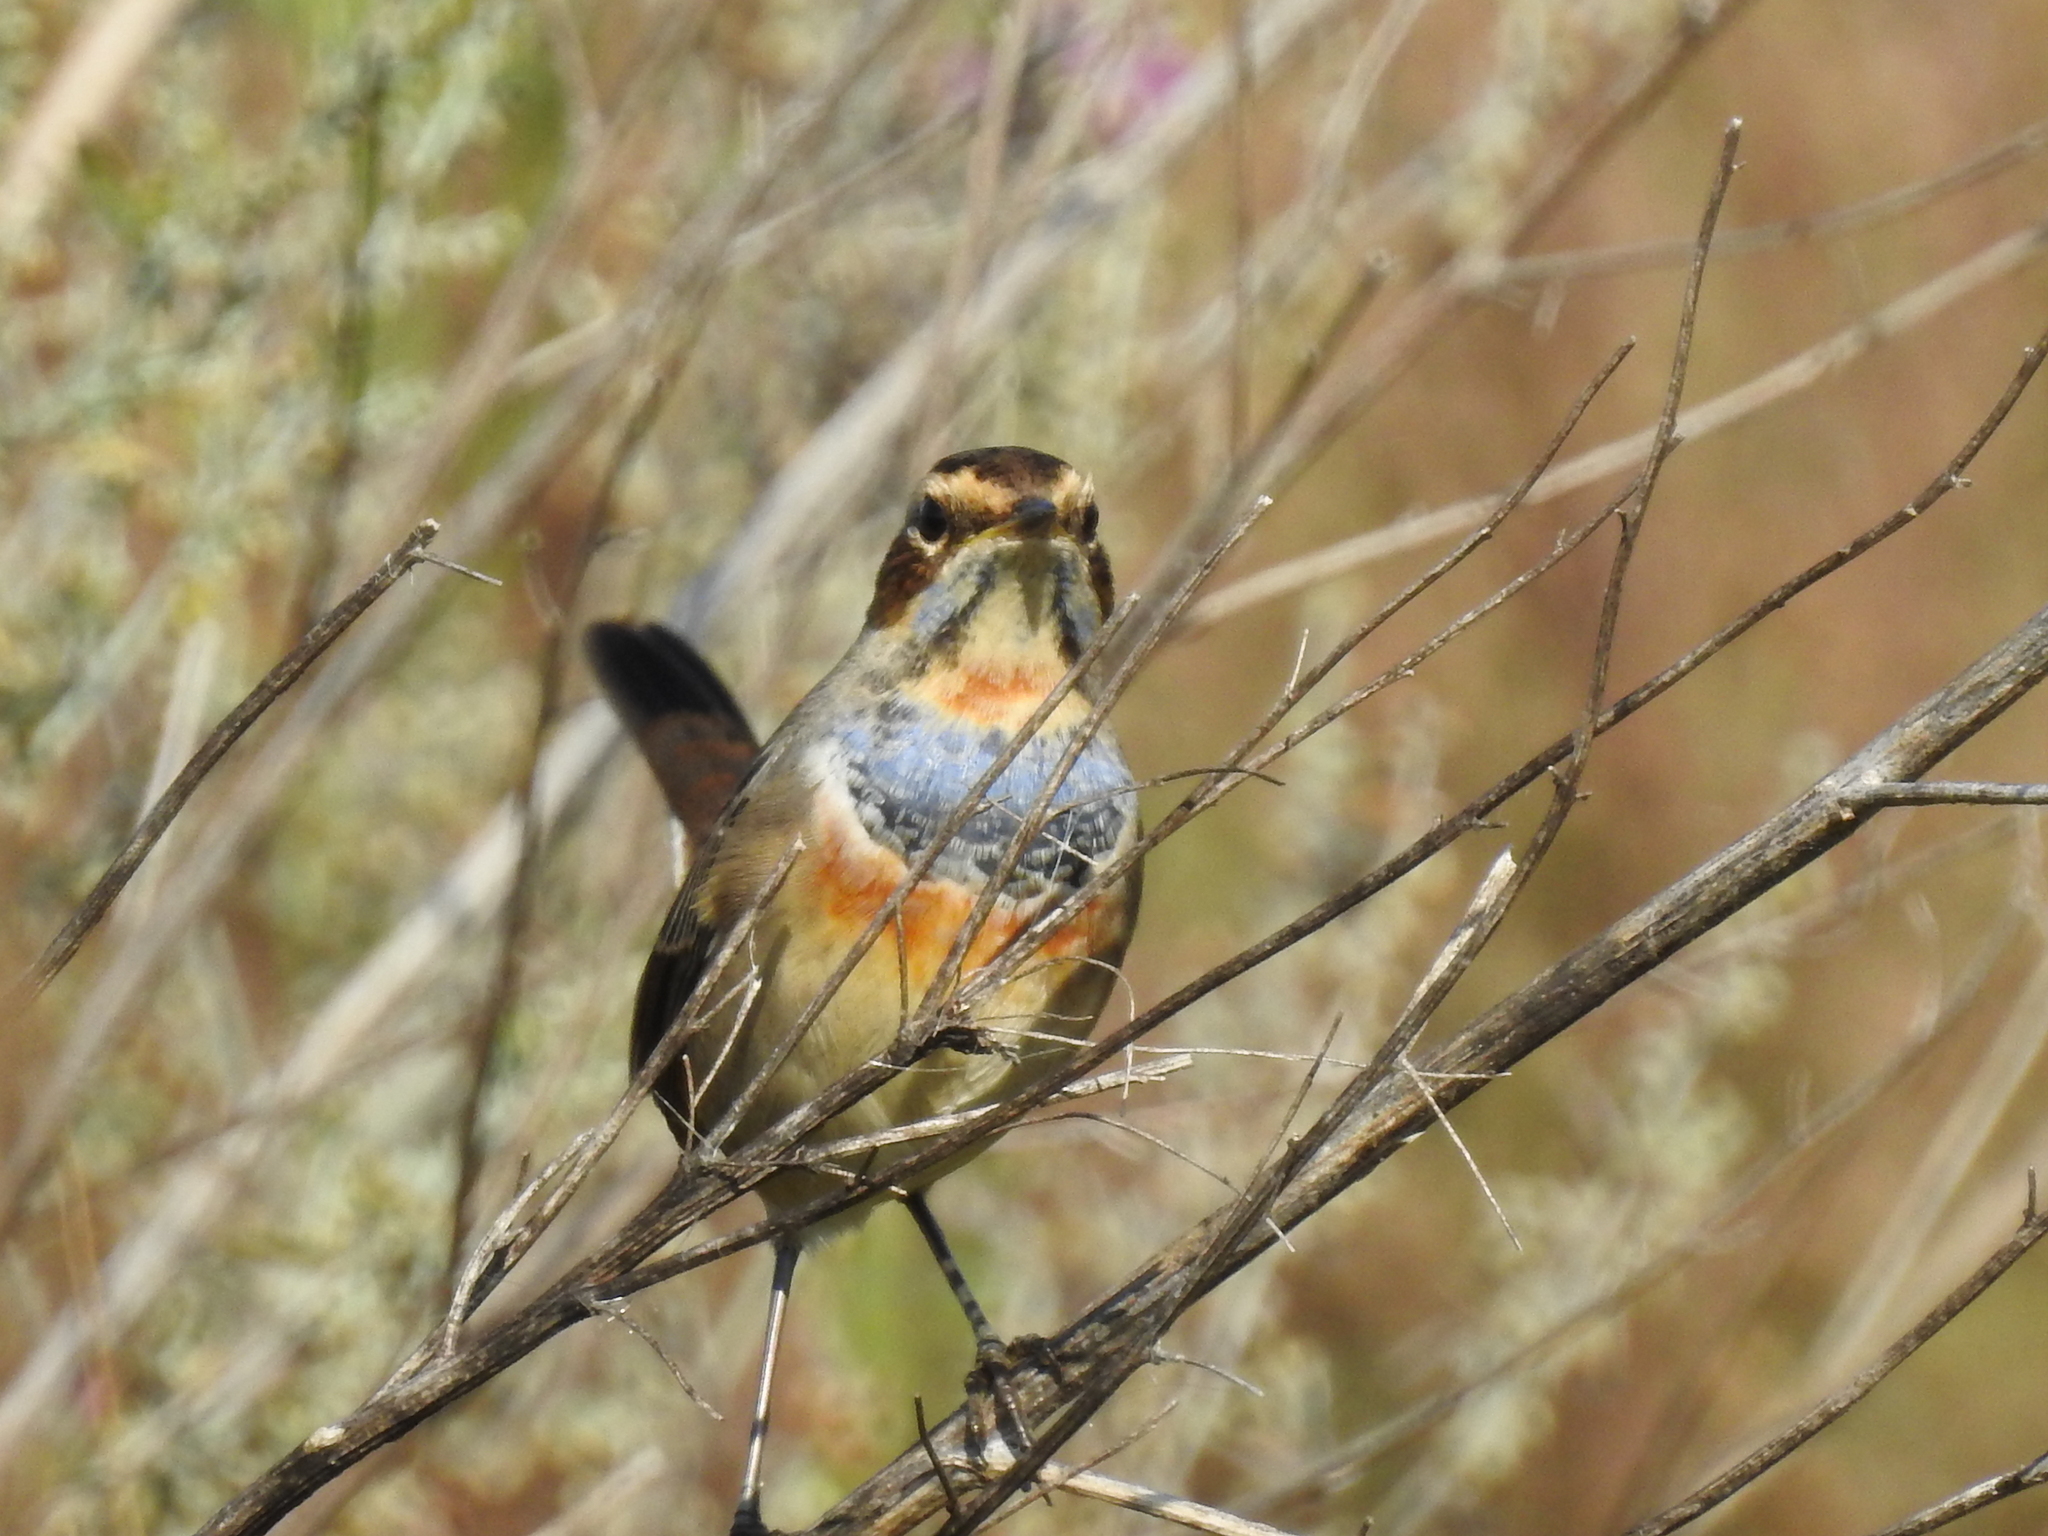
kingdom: Animalia
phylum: Chordata
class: Aves
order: Passeriformes
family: Muscicapidae
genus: Luscinia
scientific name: Luscinia svecica
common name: Bluethroat
